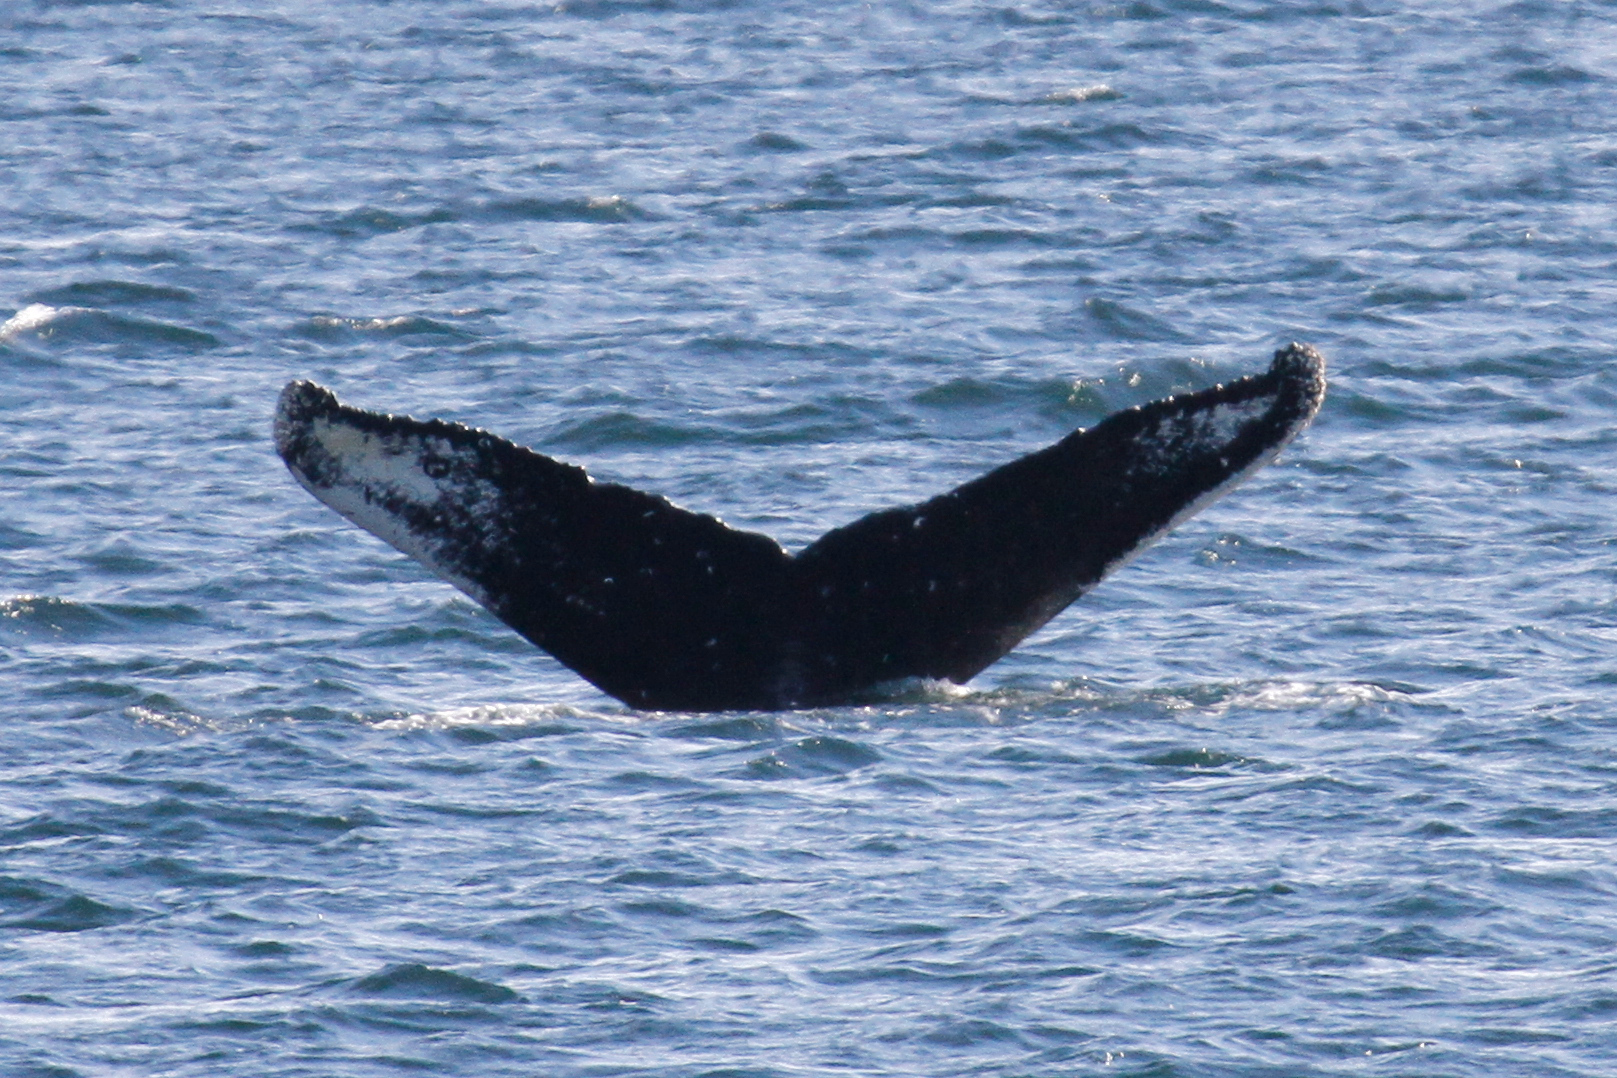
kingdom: Animalia
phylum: Chordata
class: Mammalia
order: Cetacea
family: Balaenopteridae
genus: Megaptera
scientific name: Megaptera novaeangliae
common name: Humpback whale
